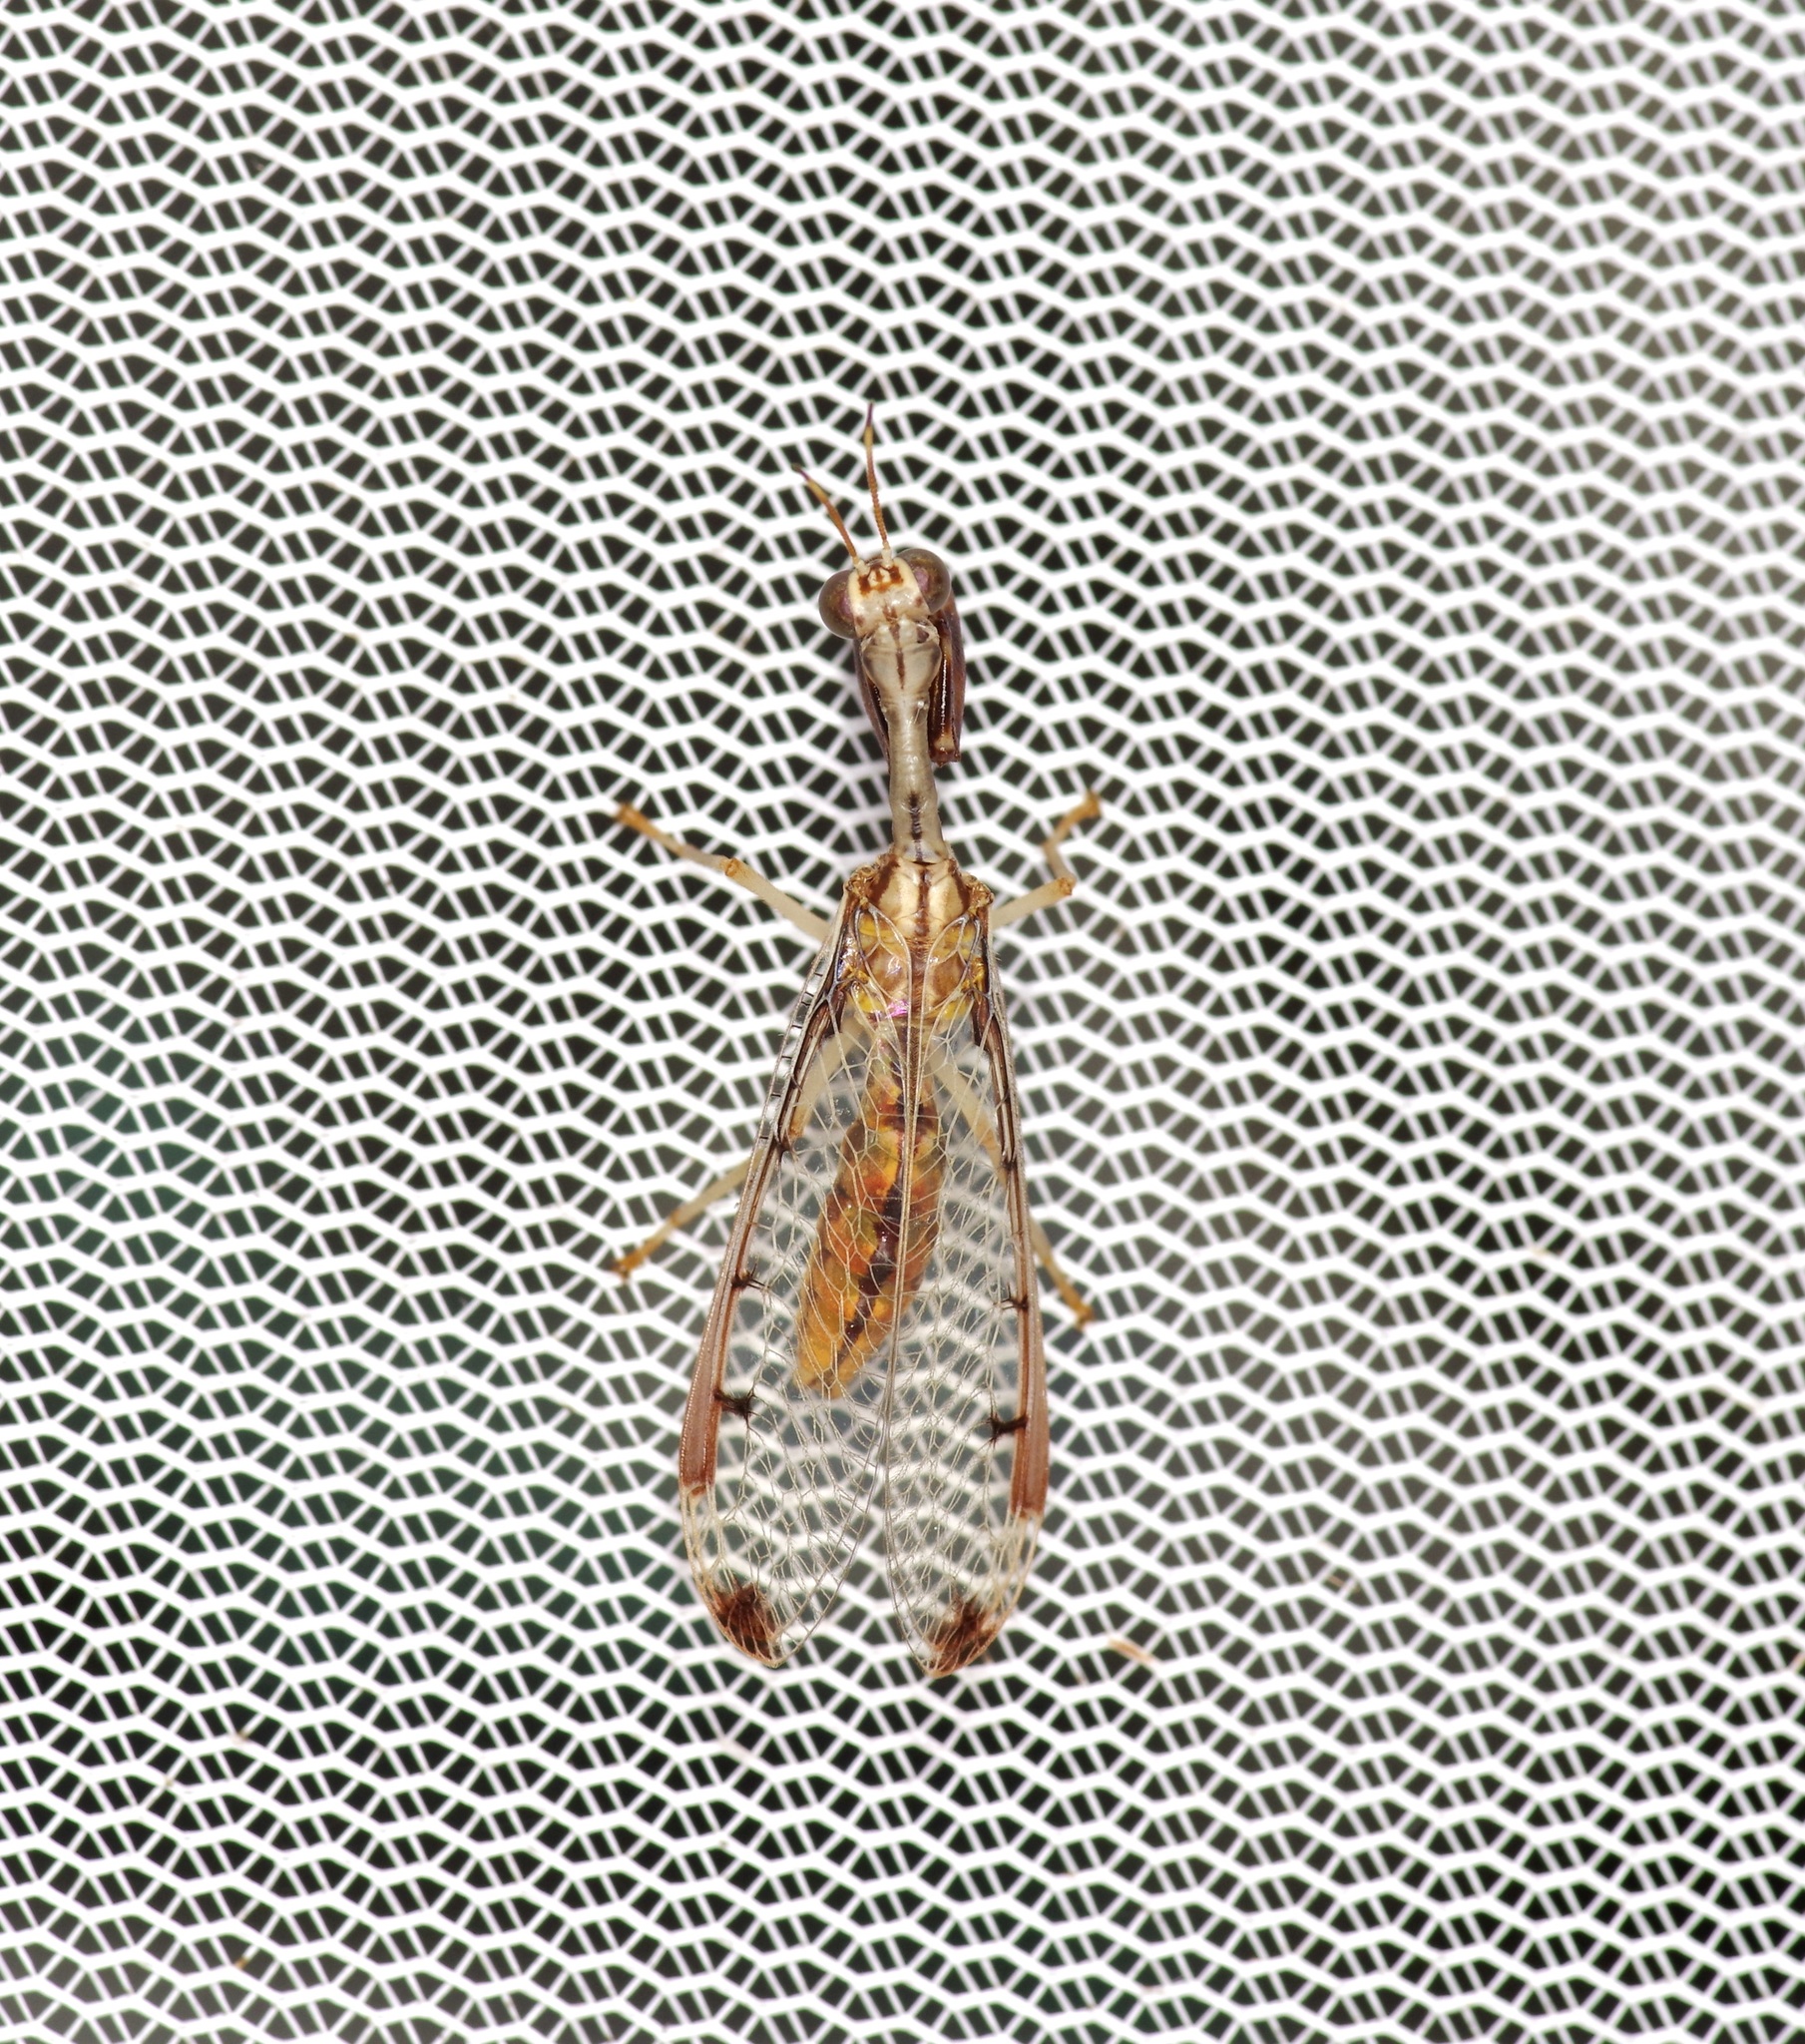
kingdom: Animalia
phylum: Arthropoda
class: Insecta
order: Neuroptera
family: Mantispidae
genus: Dicromantispa
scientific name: Dicromantispa interrupta
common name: Four-spotted mantidfly
